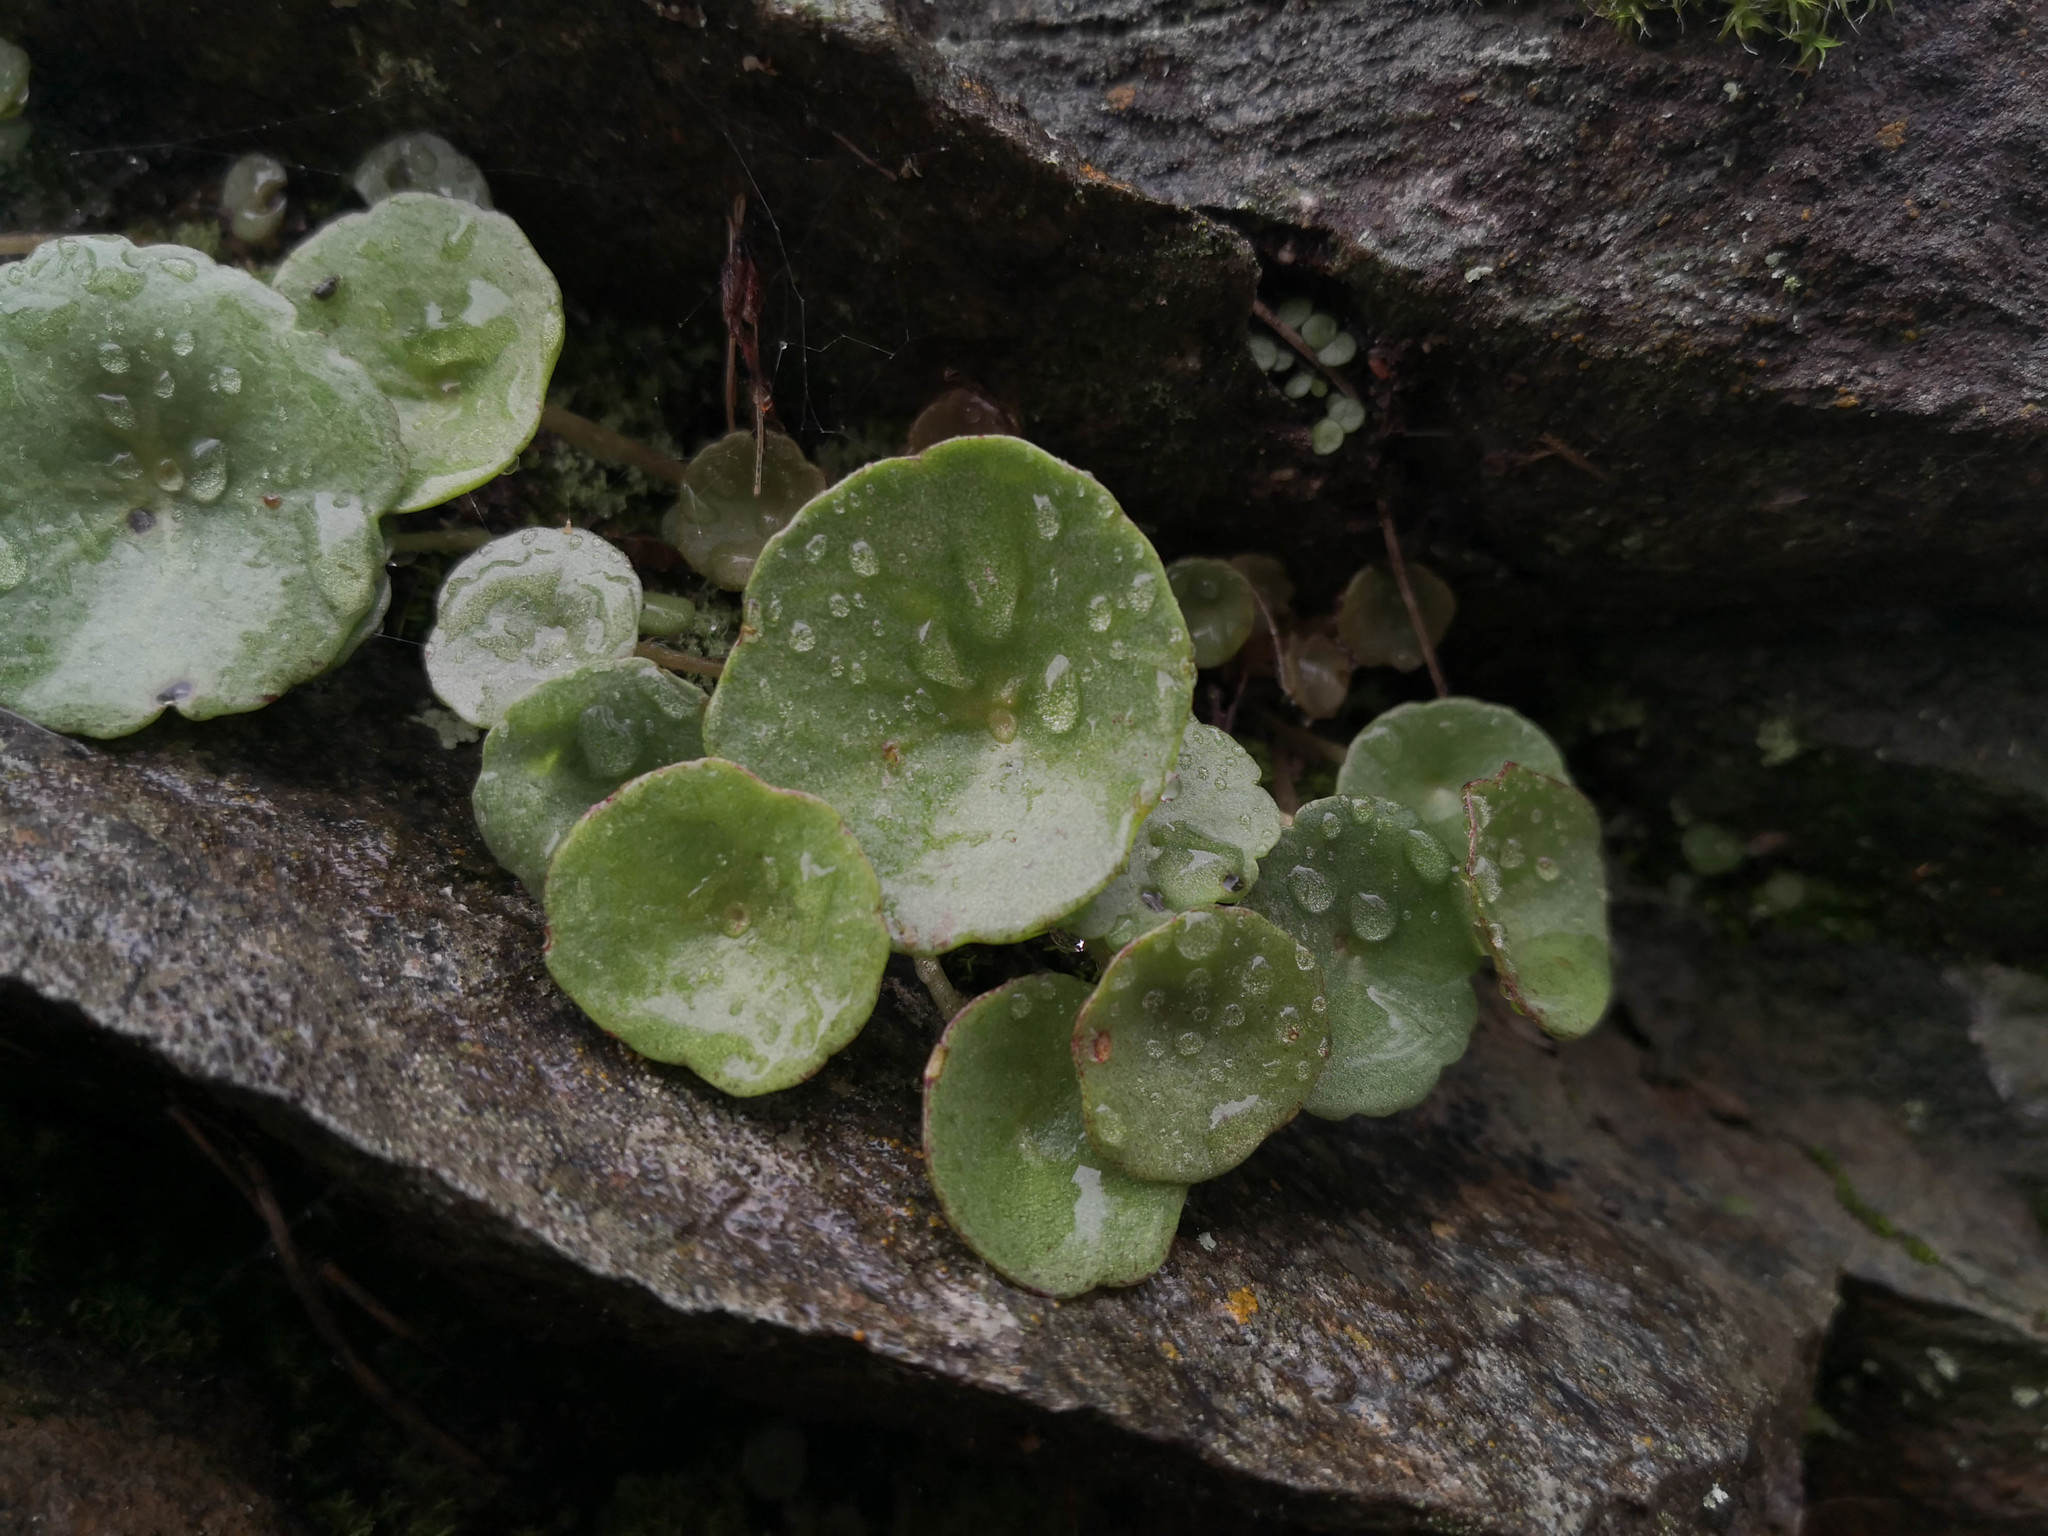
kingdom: Plantae
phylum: Tracheophyta
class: Magnoliopsida
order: Saxifragales
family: Crassulaceae
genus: Umbilicus
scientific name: Umbilicus rupestris
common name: Navelwort
